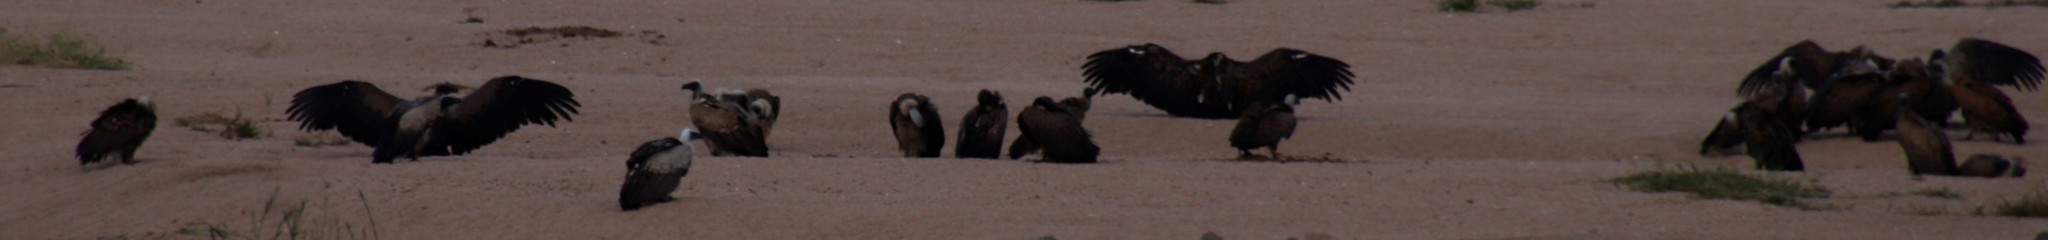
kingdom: Animalia
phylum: Chordata
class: Aves
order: Accipitriformes
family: Accipitridae
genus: Gyps
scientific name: Gyps africanus
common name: White-backed vulture
